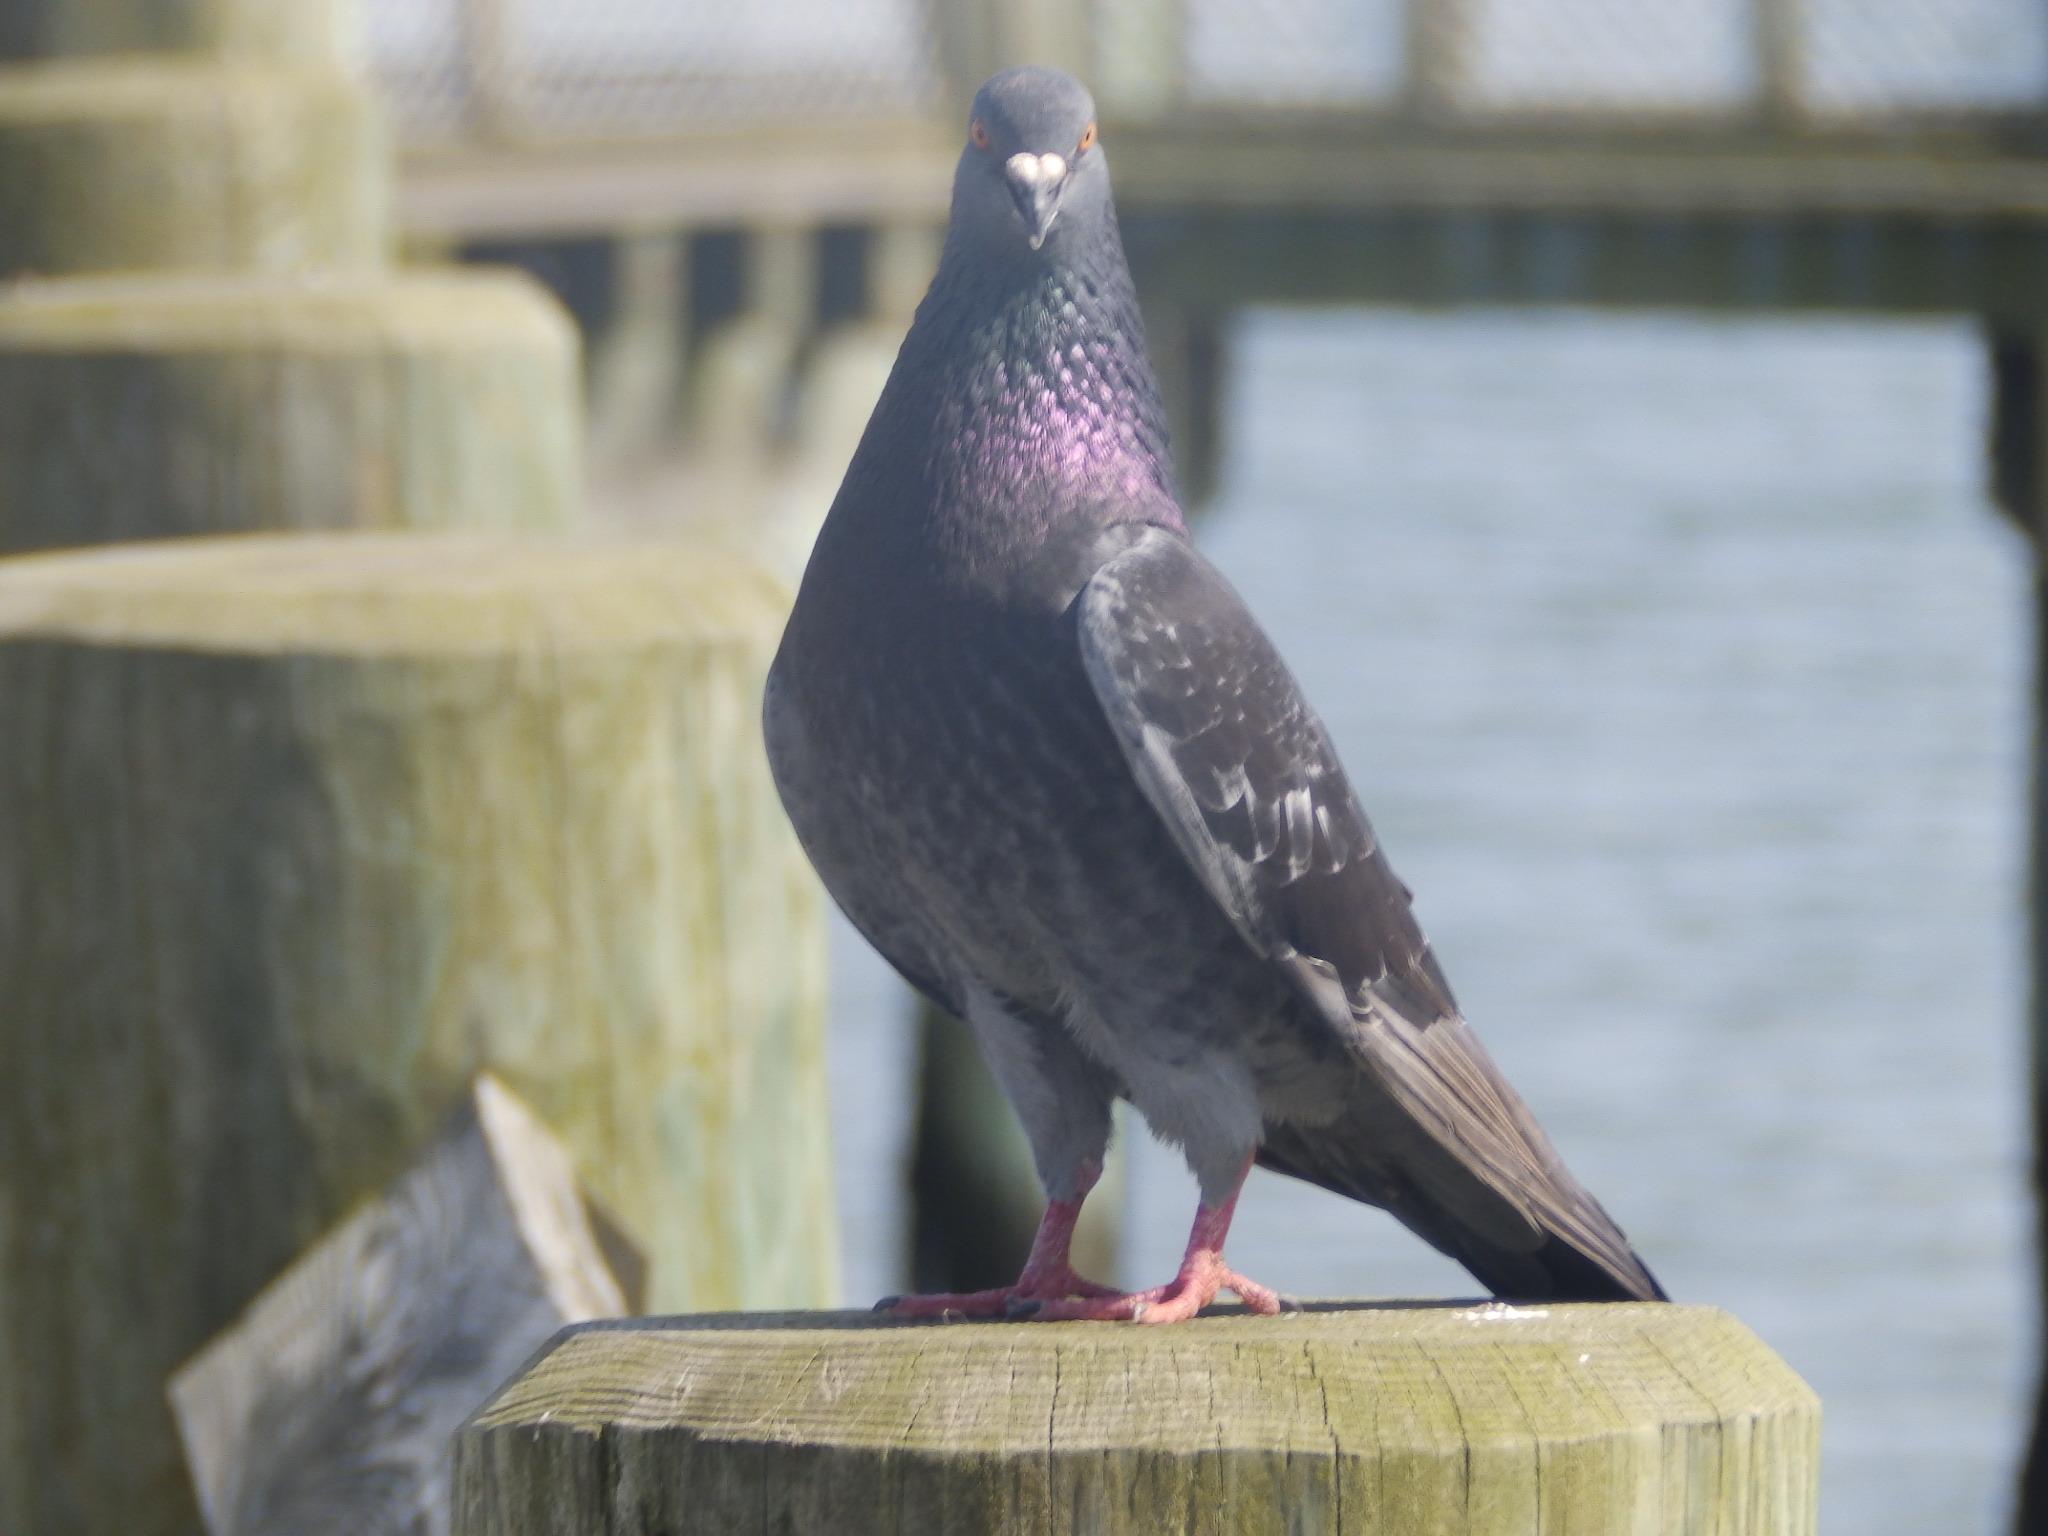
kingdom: Animalia
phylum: Chordata
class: Aves
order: Columbiformes
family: Columbidae
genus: Columba
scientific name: Columba livia
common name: Rock pigeon
